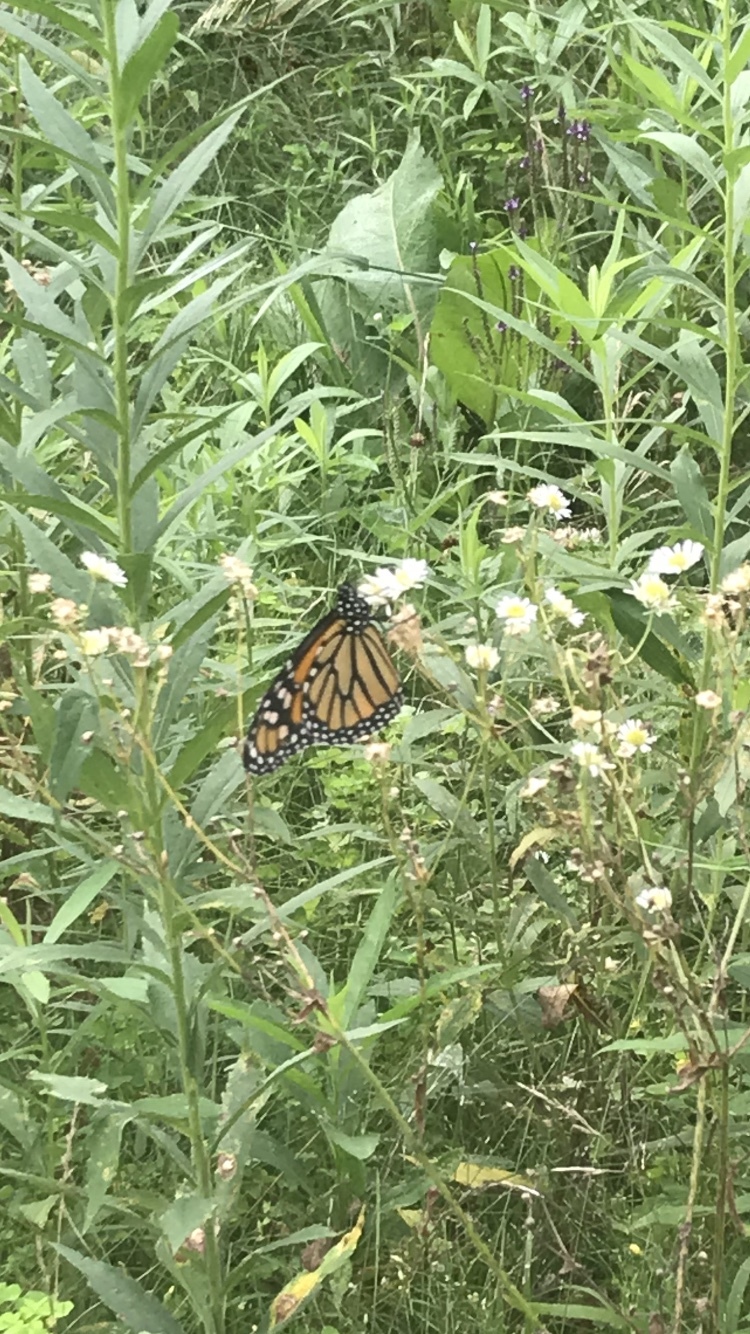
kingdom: Animalia
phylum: Arthropoda
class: Insecta
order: Lepidoptera
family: Nymphalidae
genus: Danaus
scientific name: Danaus plexippus
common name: Monarch
